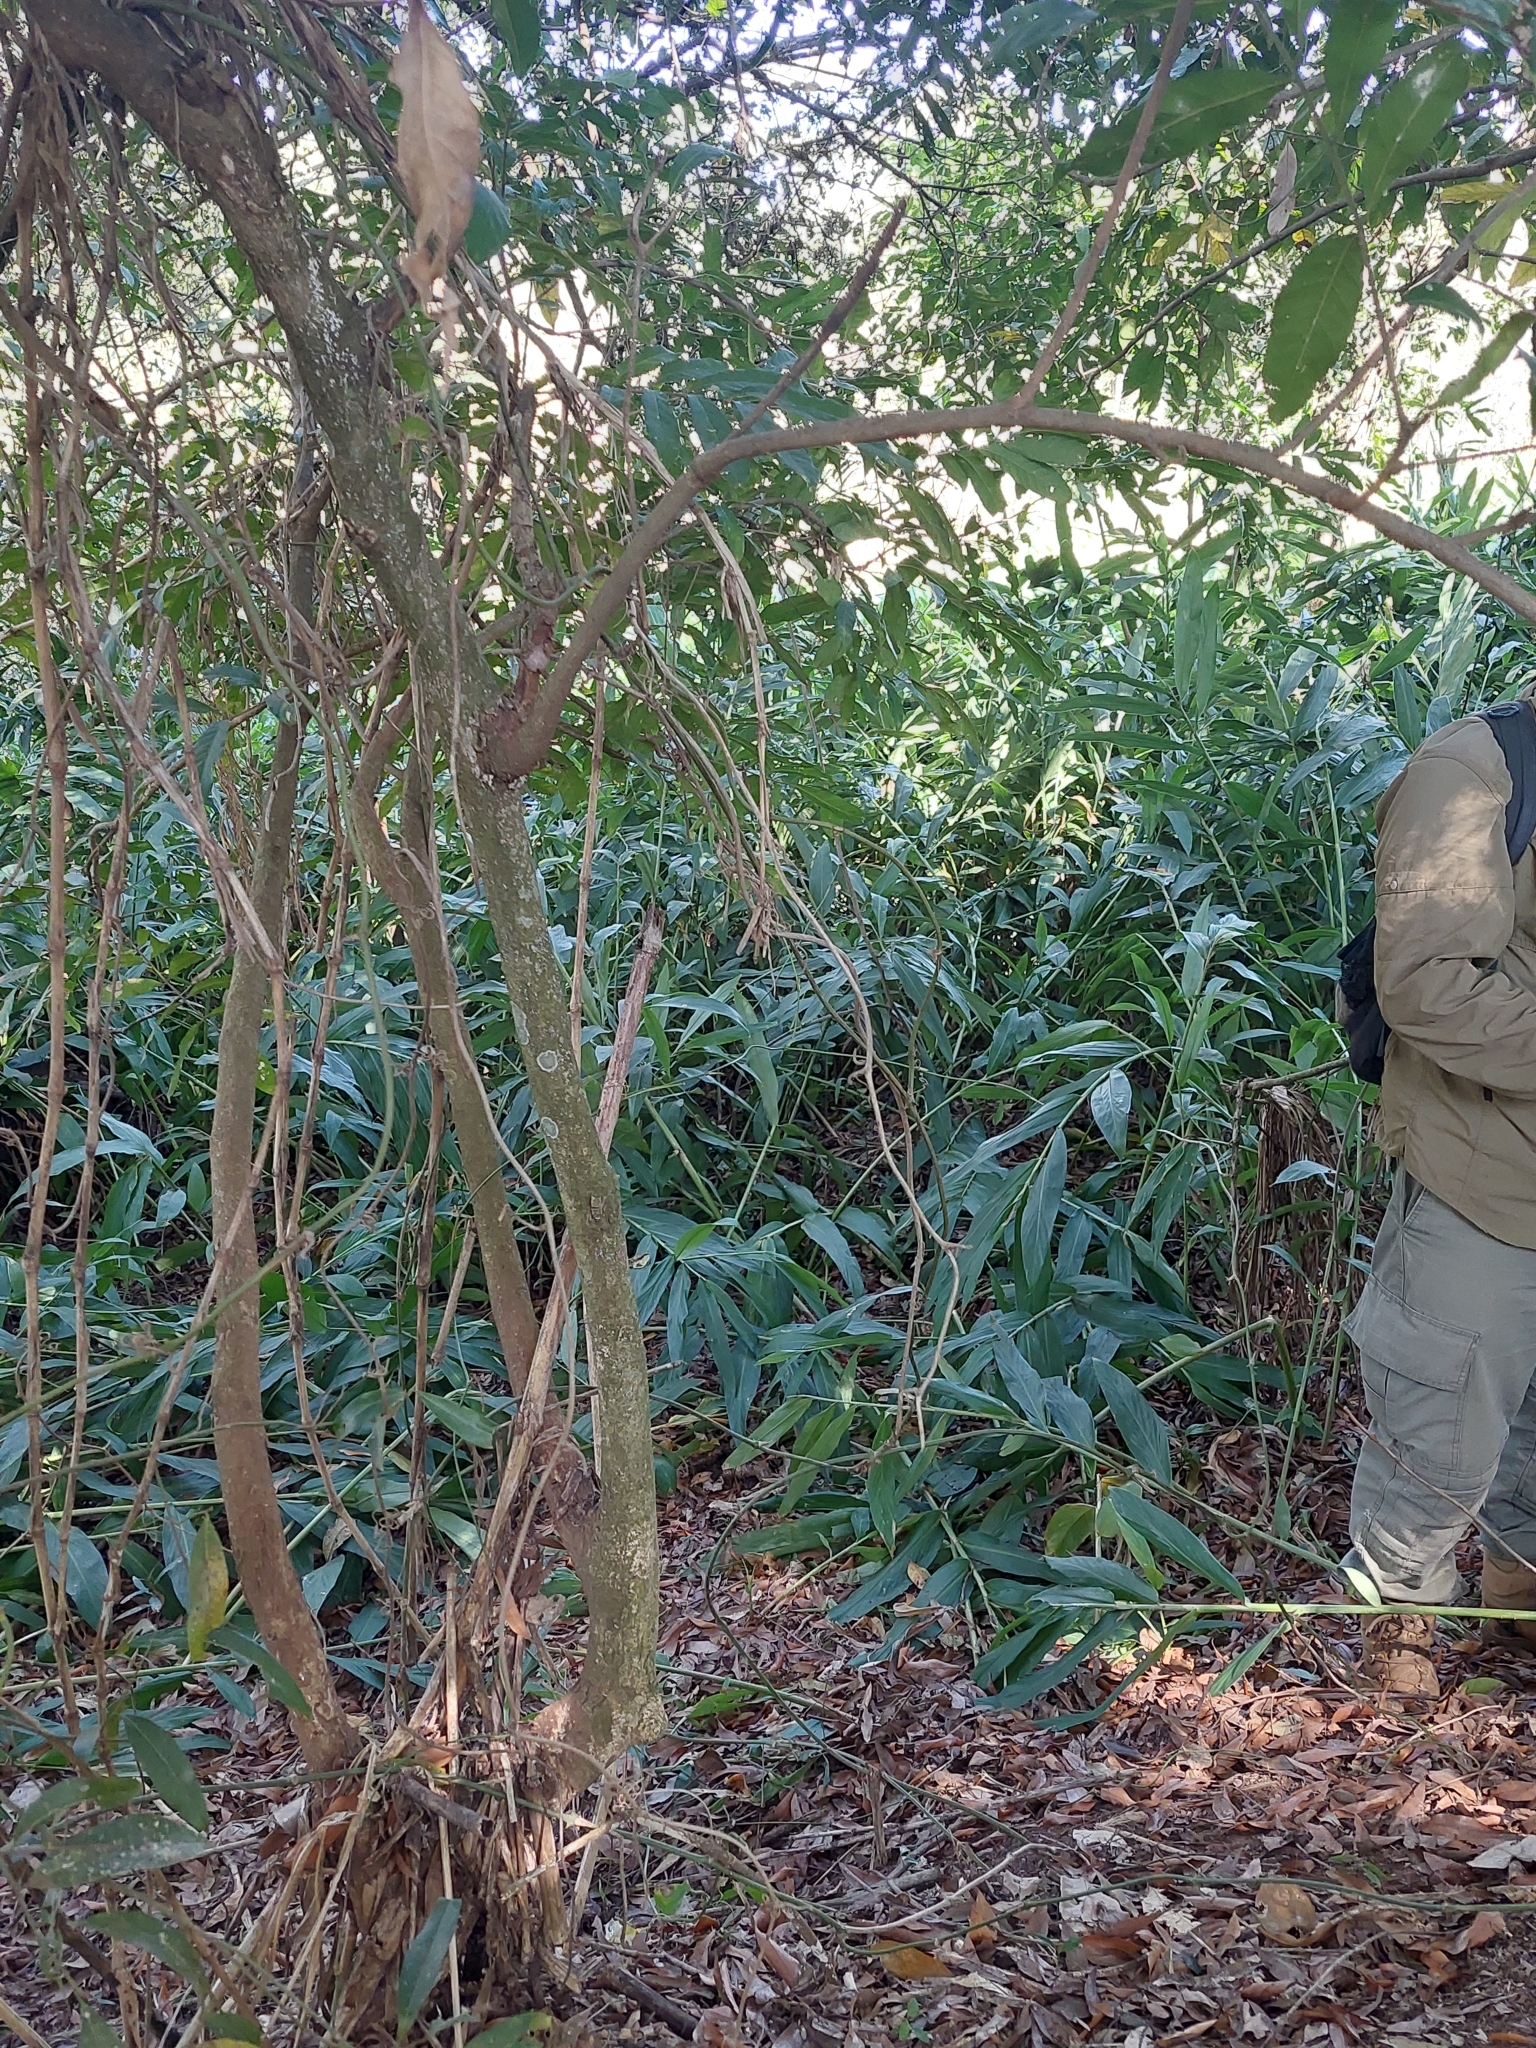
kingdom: Plantae
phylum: Tracheophyta
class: Liliopsida
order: Zingiberales
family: Zingiberaceae
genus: Hedychium
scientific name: Hedychium coronarium
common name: White garland-lily
